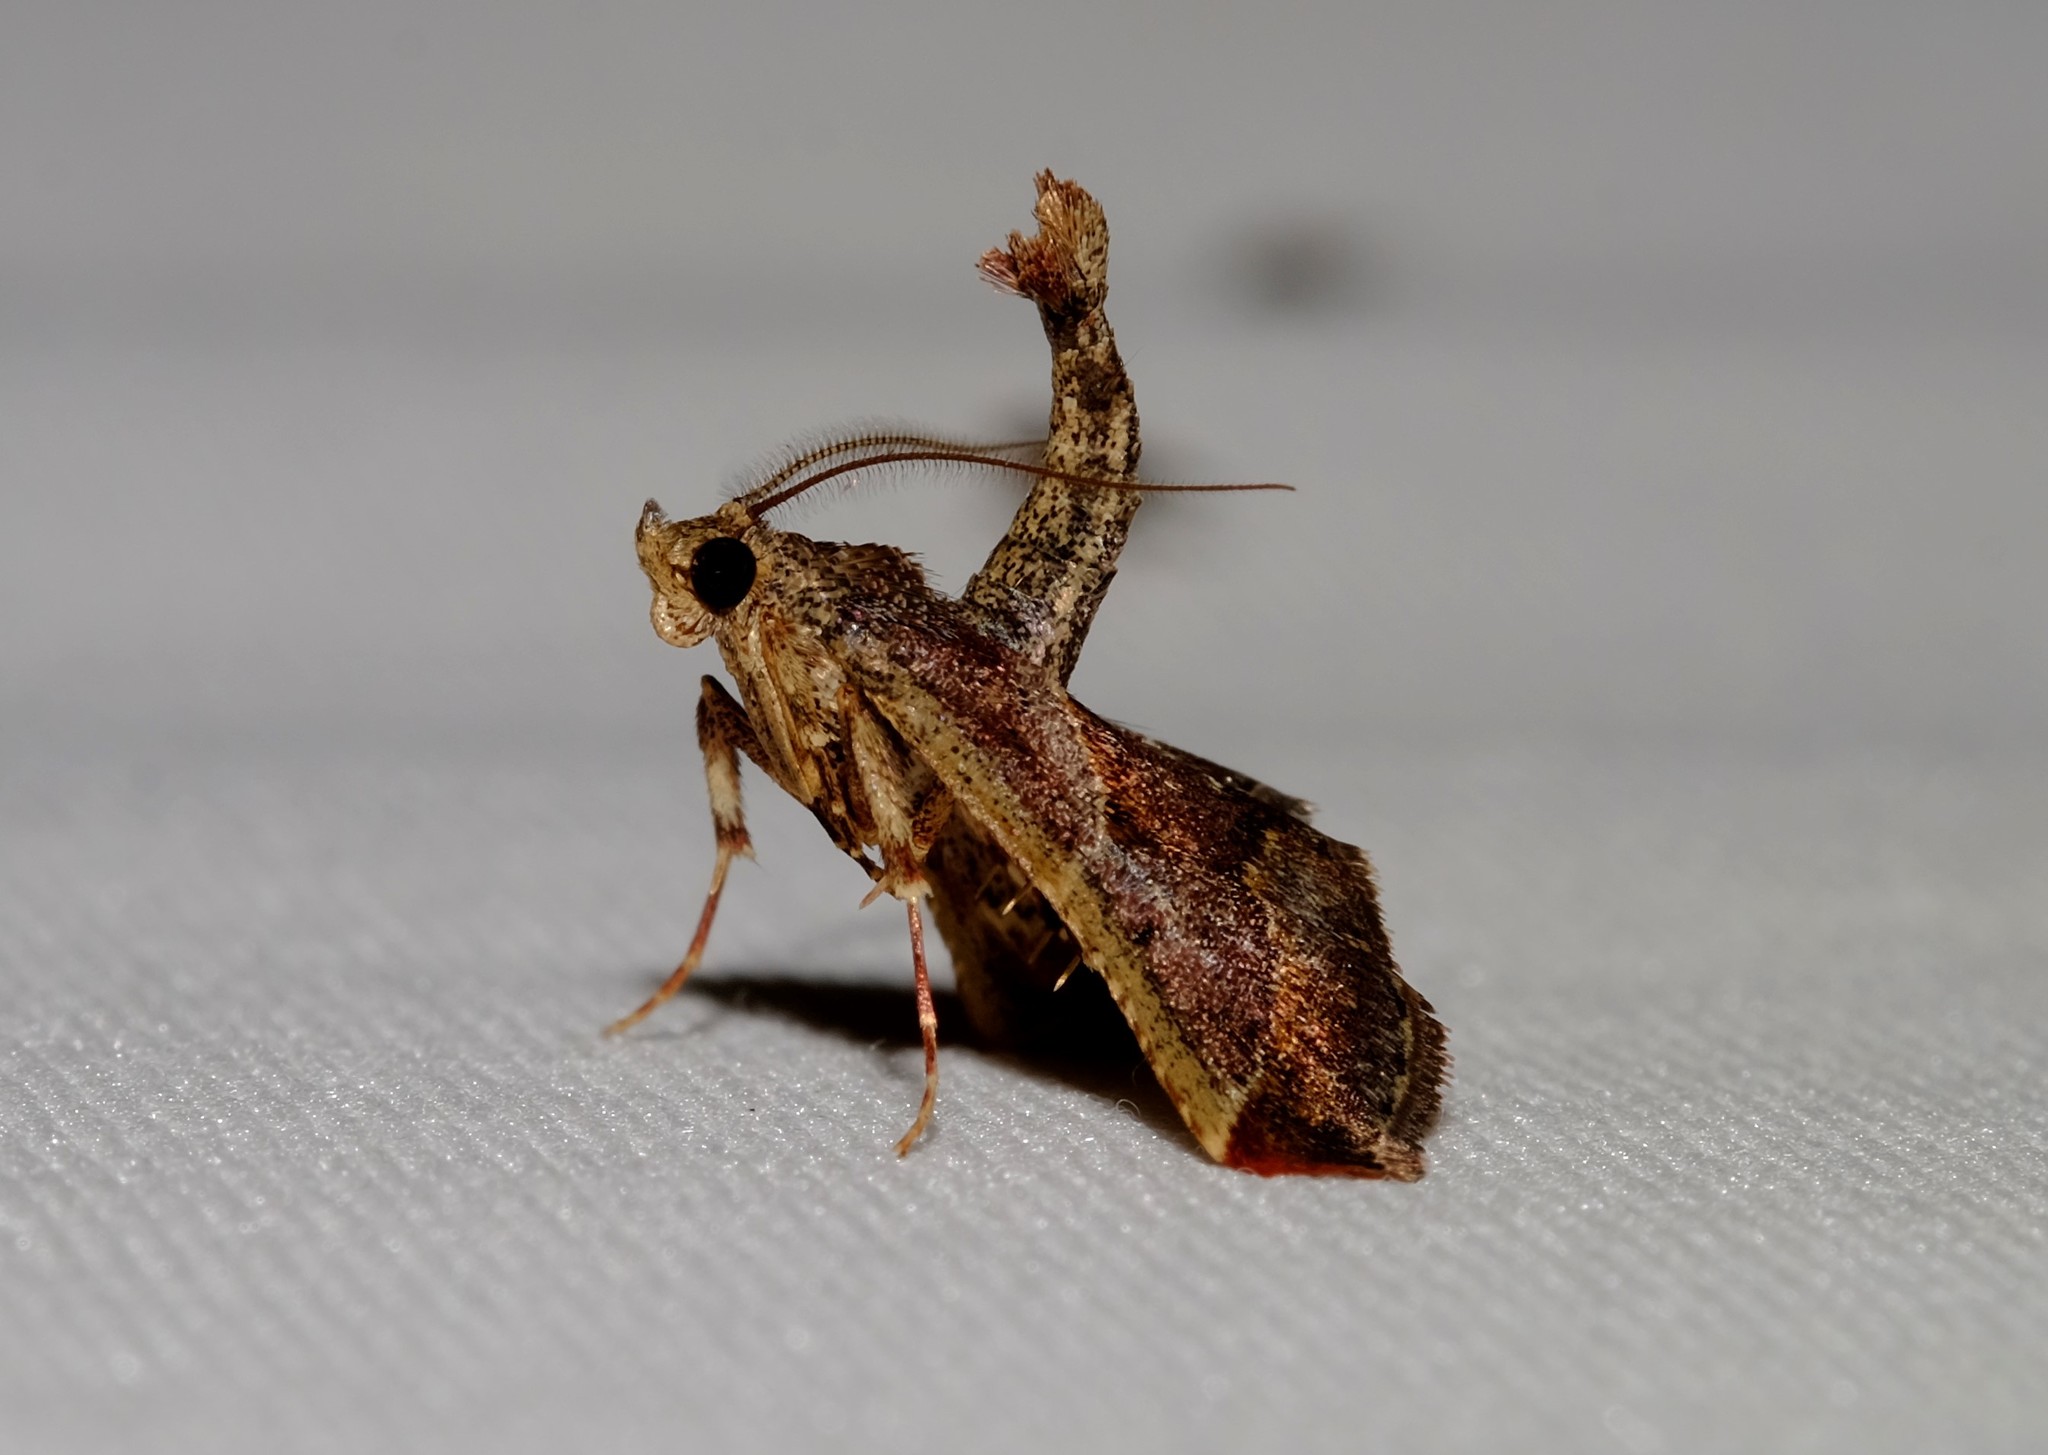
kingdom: Animalia
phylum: Arthropoda
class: Insecta
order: Lepidoptera
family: Pyralidae
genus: Gauna
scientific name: Gauna aegusalis
